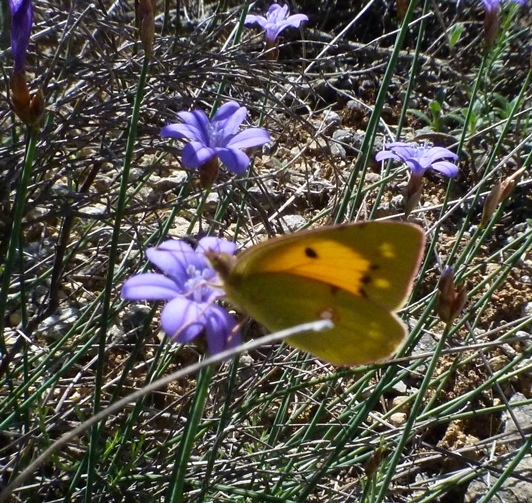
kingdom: Animalia
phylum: Arthropoda
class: Insecta
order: Lepidoptera
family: Pieridae
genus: Colias
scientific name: Colias croceus
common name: Clouded yellow
